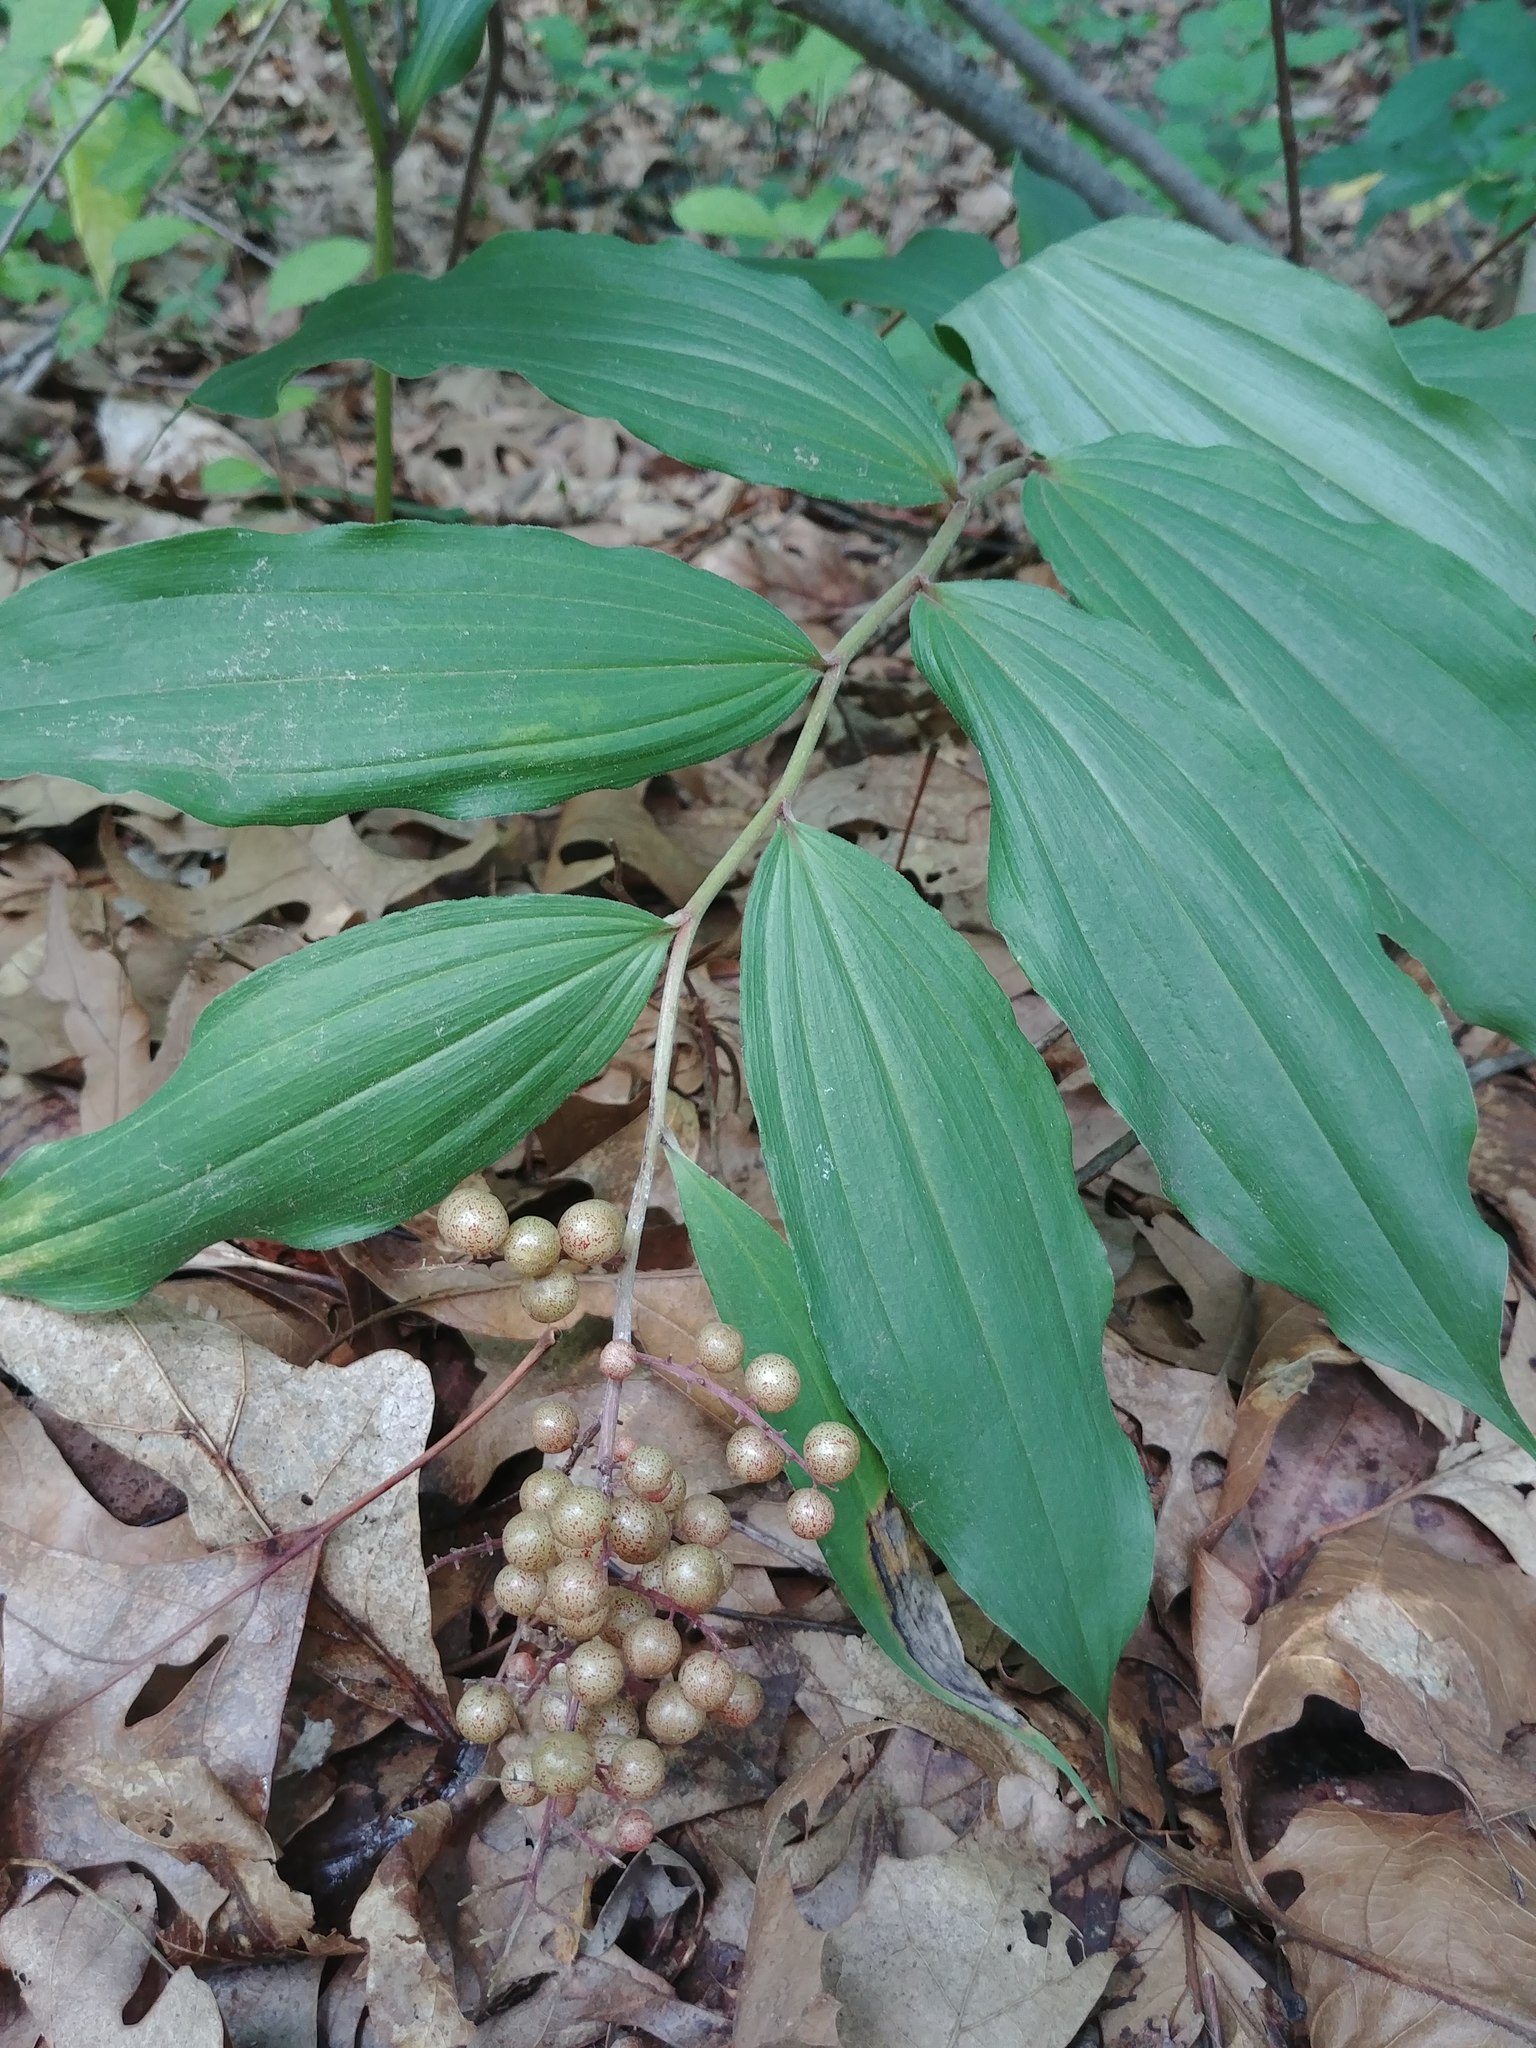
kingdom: Plantae
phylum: Tracheophyta
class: Liliopsida
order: Asparagales
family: Asparagaceae
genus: Maianthemum
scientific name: Maianthemum racemosum
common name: False spikenard
